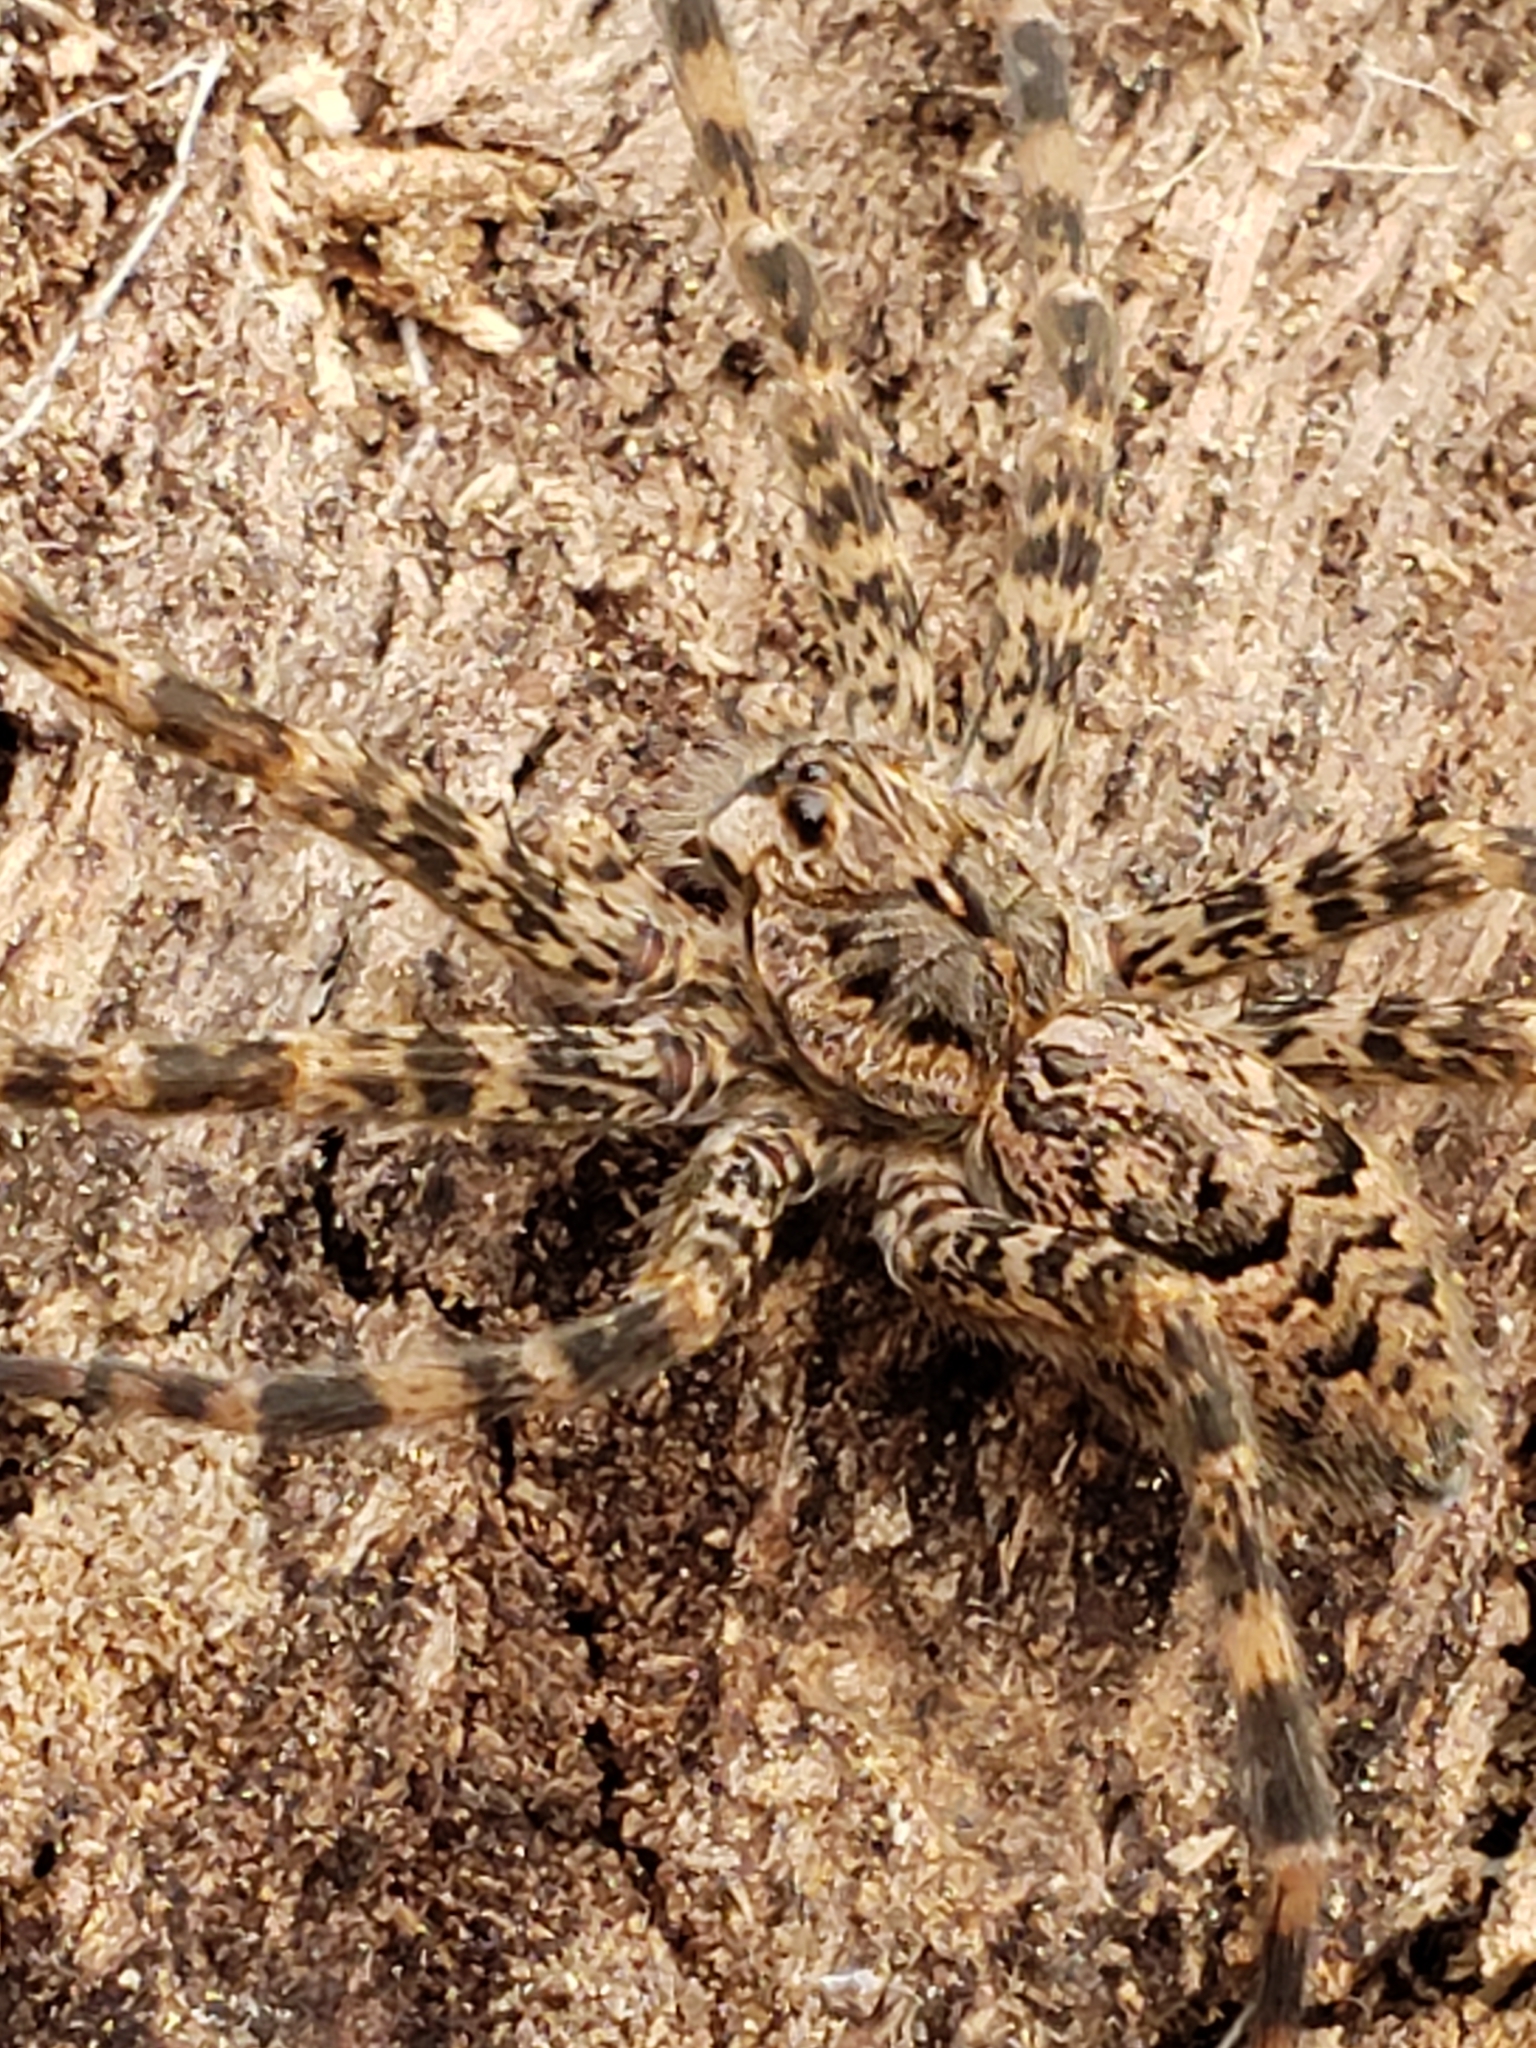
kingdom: Animalia
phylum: Arthropoda
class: Arachnida
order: Araneae
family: Pisauridae
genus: Dolomedes
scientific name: Dolomedes tenebrosus
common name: Dark fishing spider
